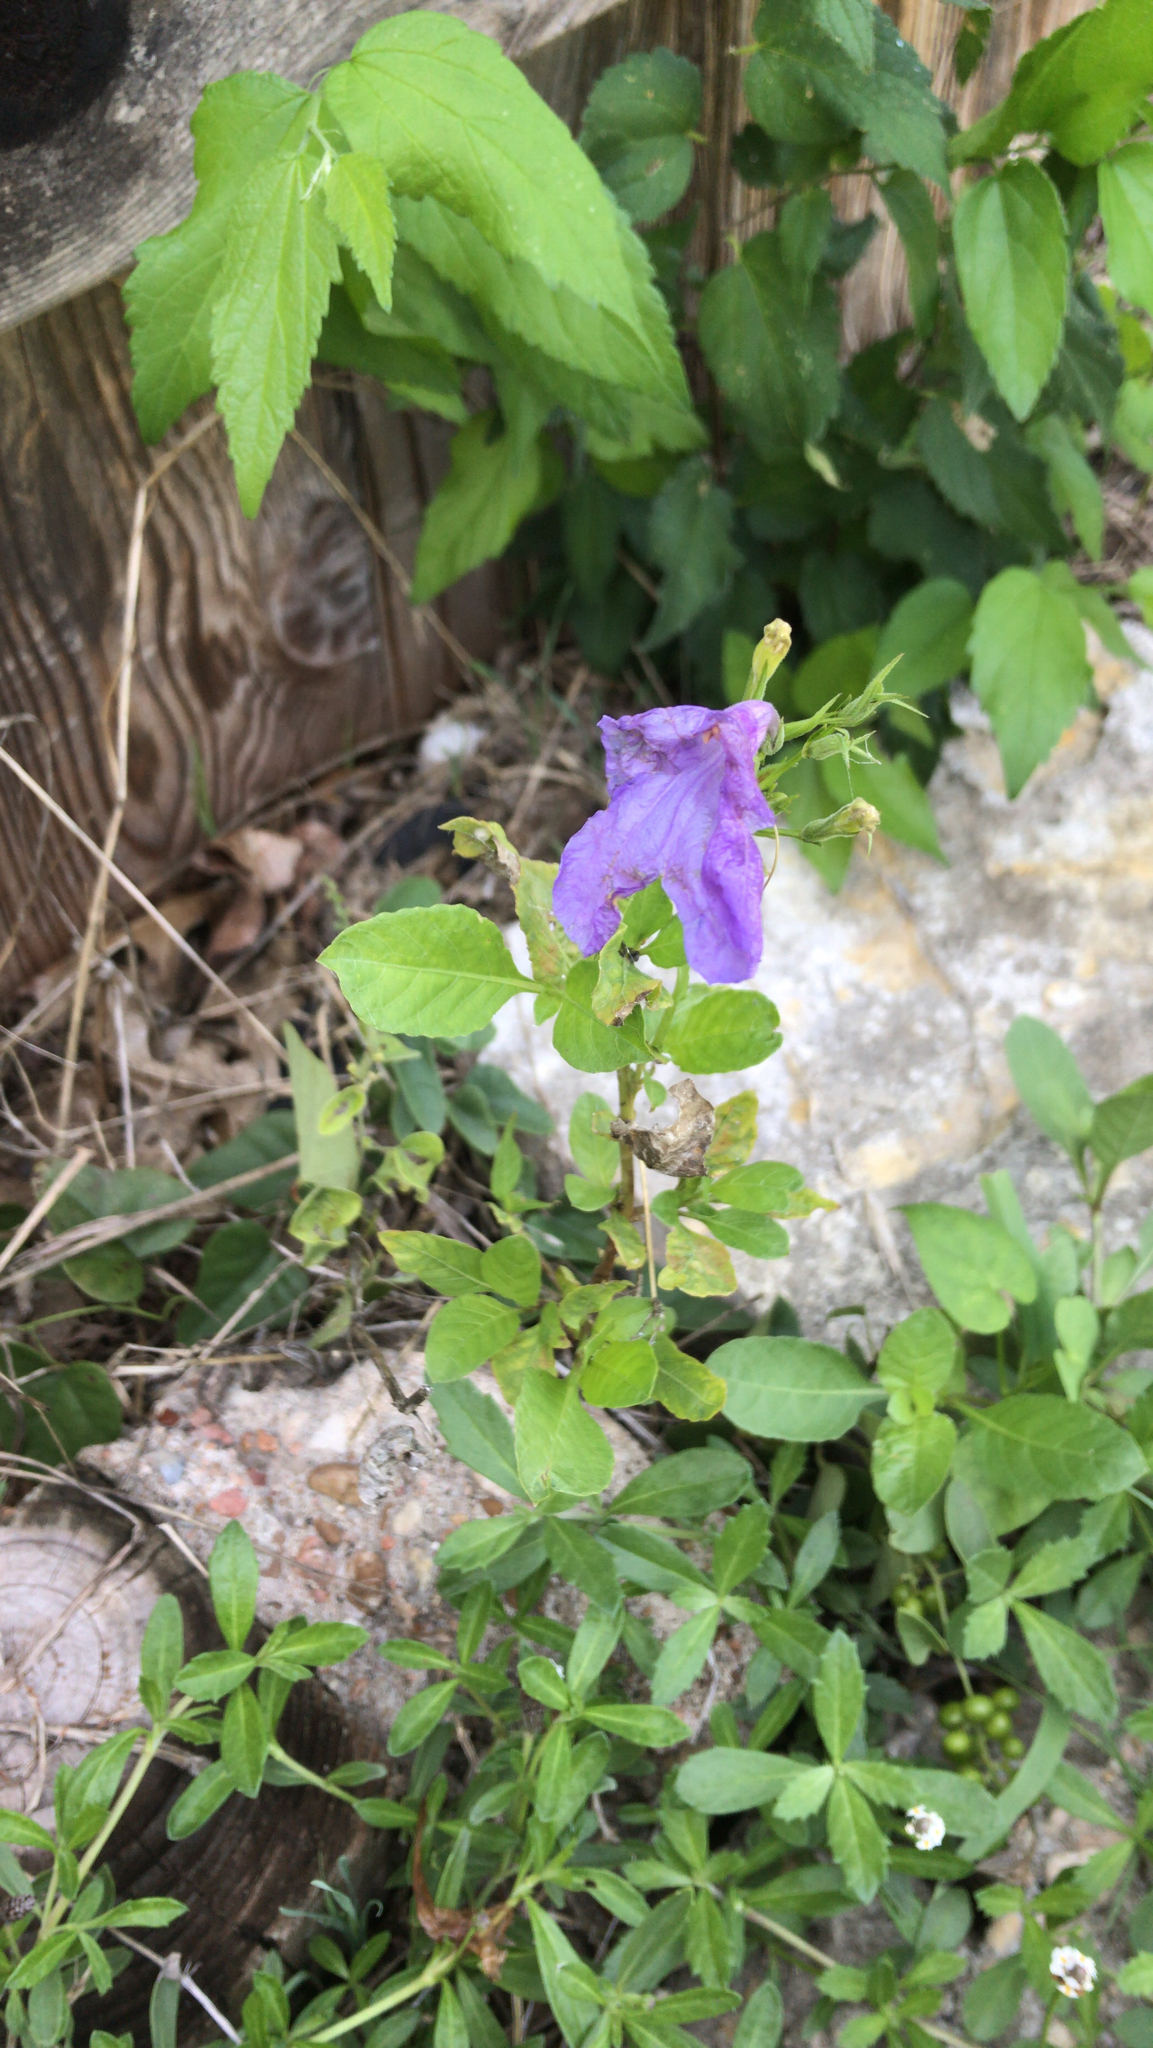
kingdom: Plantae
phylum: Tracheophyta
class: Magnoliopsida
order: Lamiales
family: Acanthaceae
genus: Ruellia
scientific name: Ruellia ciliatiflora
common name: Hairyflower wild petunia
